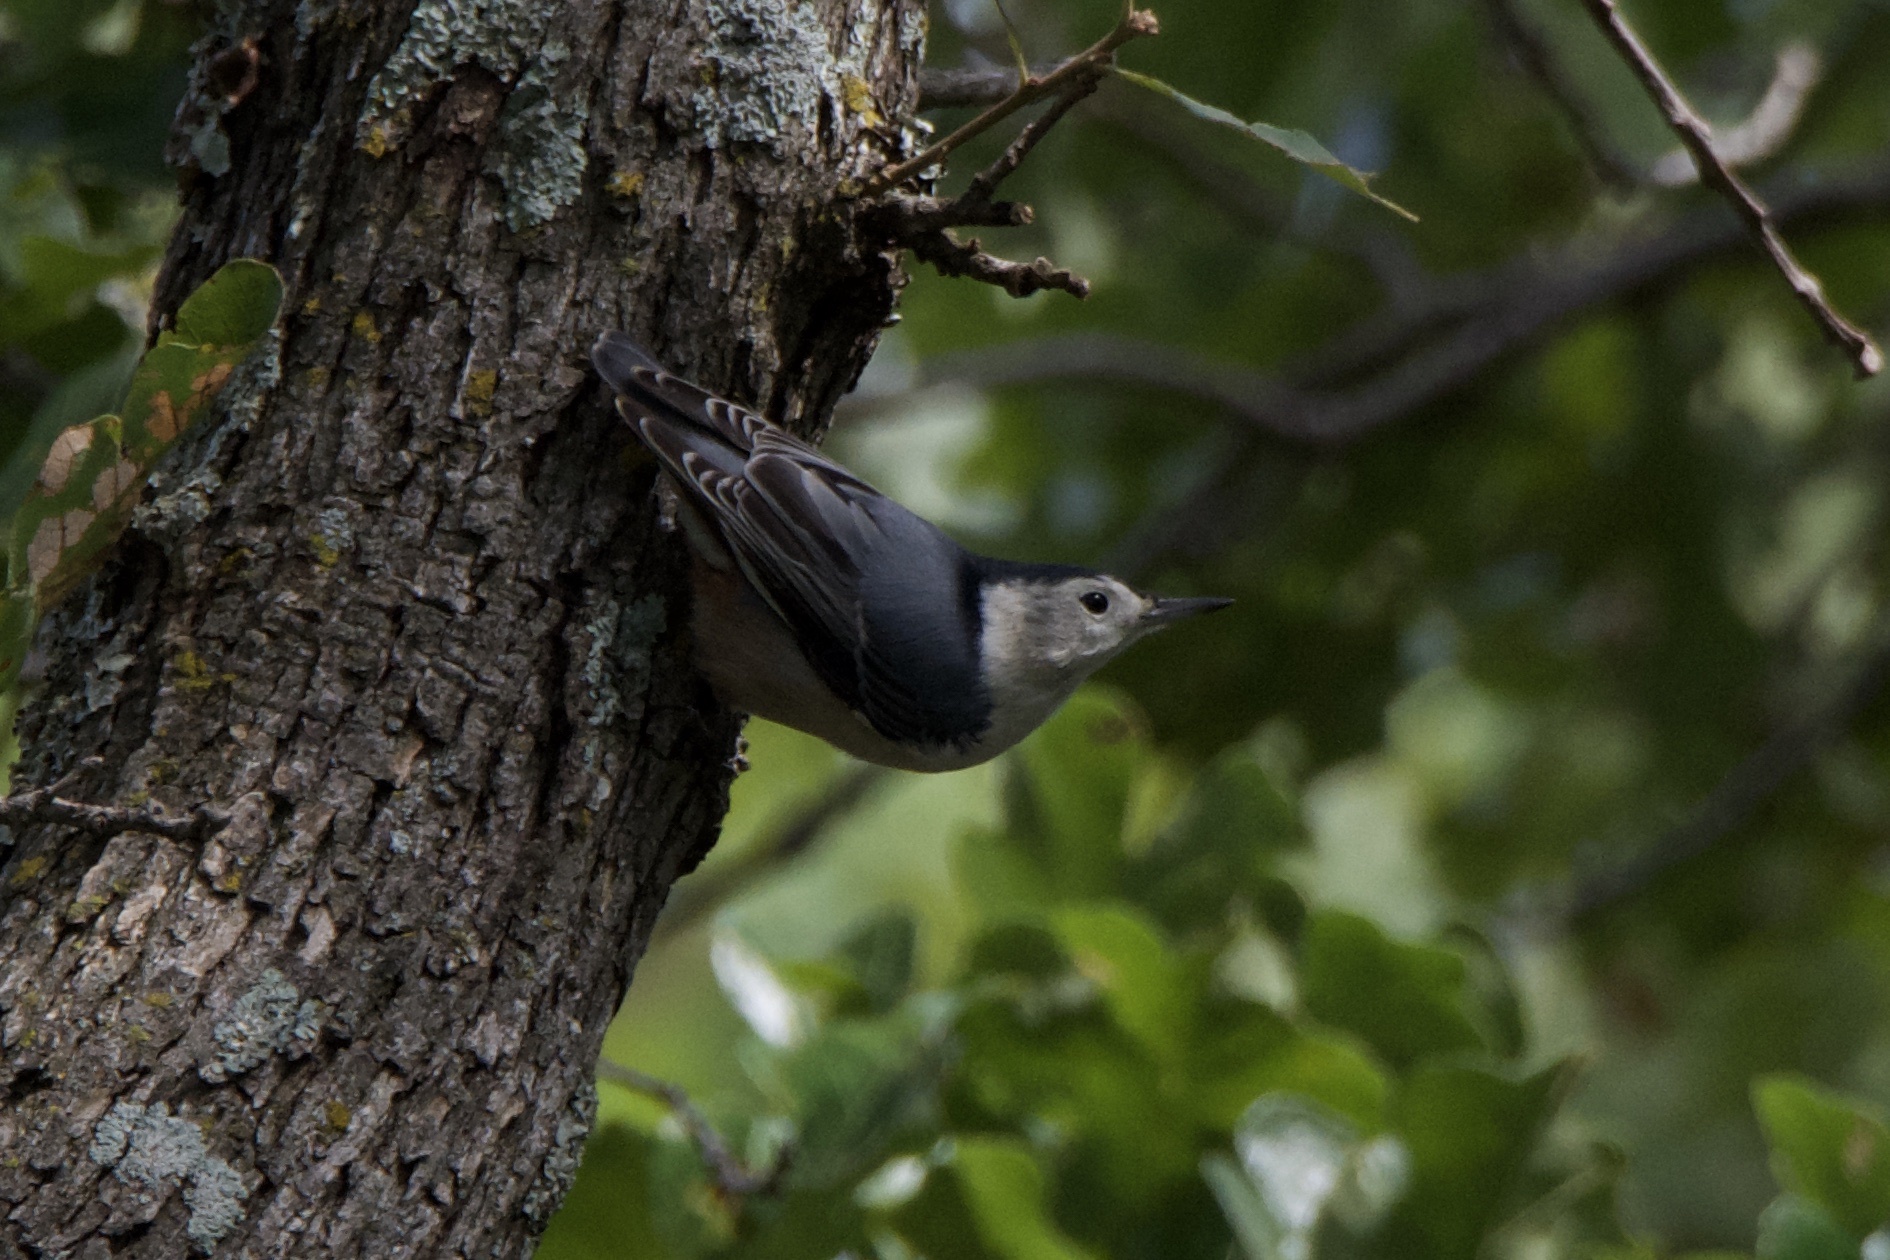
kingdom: Animalia
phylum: Chordata
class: Aves
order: Passeriformes
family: Sittidae
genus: Sitta
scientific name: Sitta carolinensis
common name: White-breasted nuthatch
